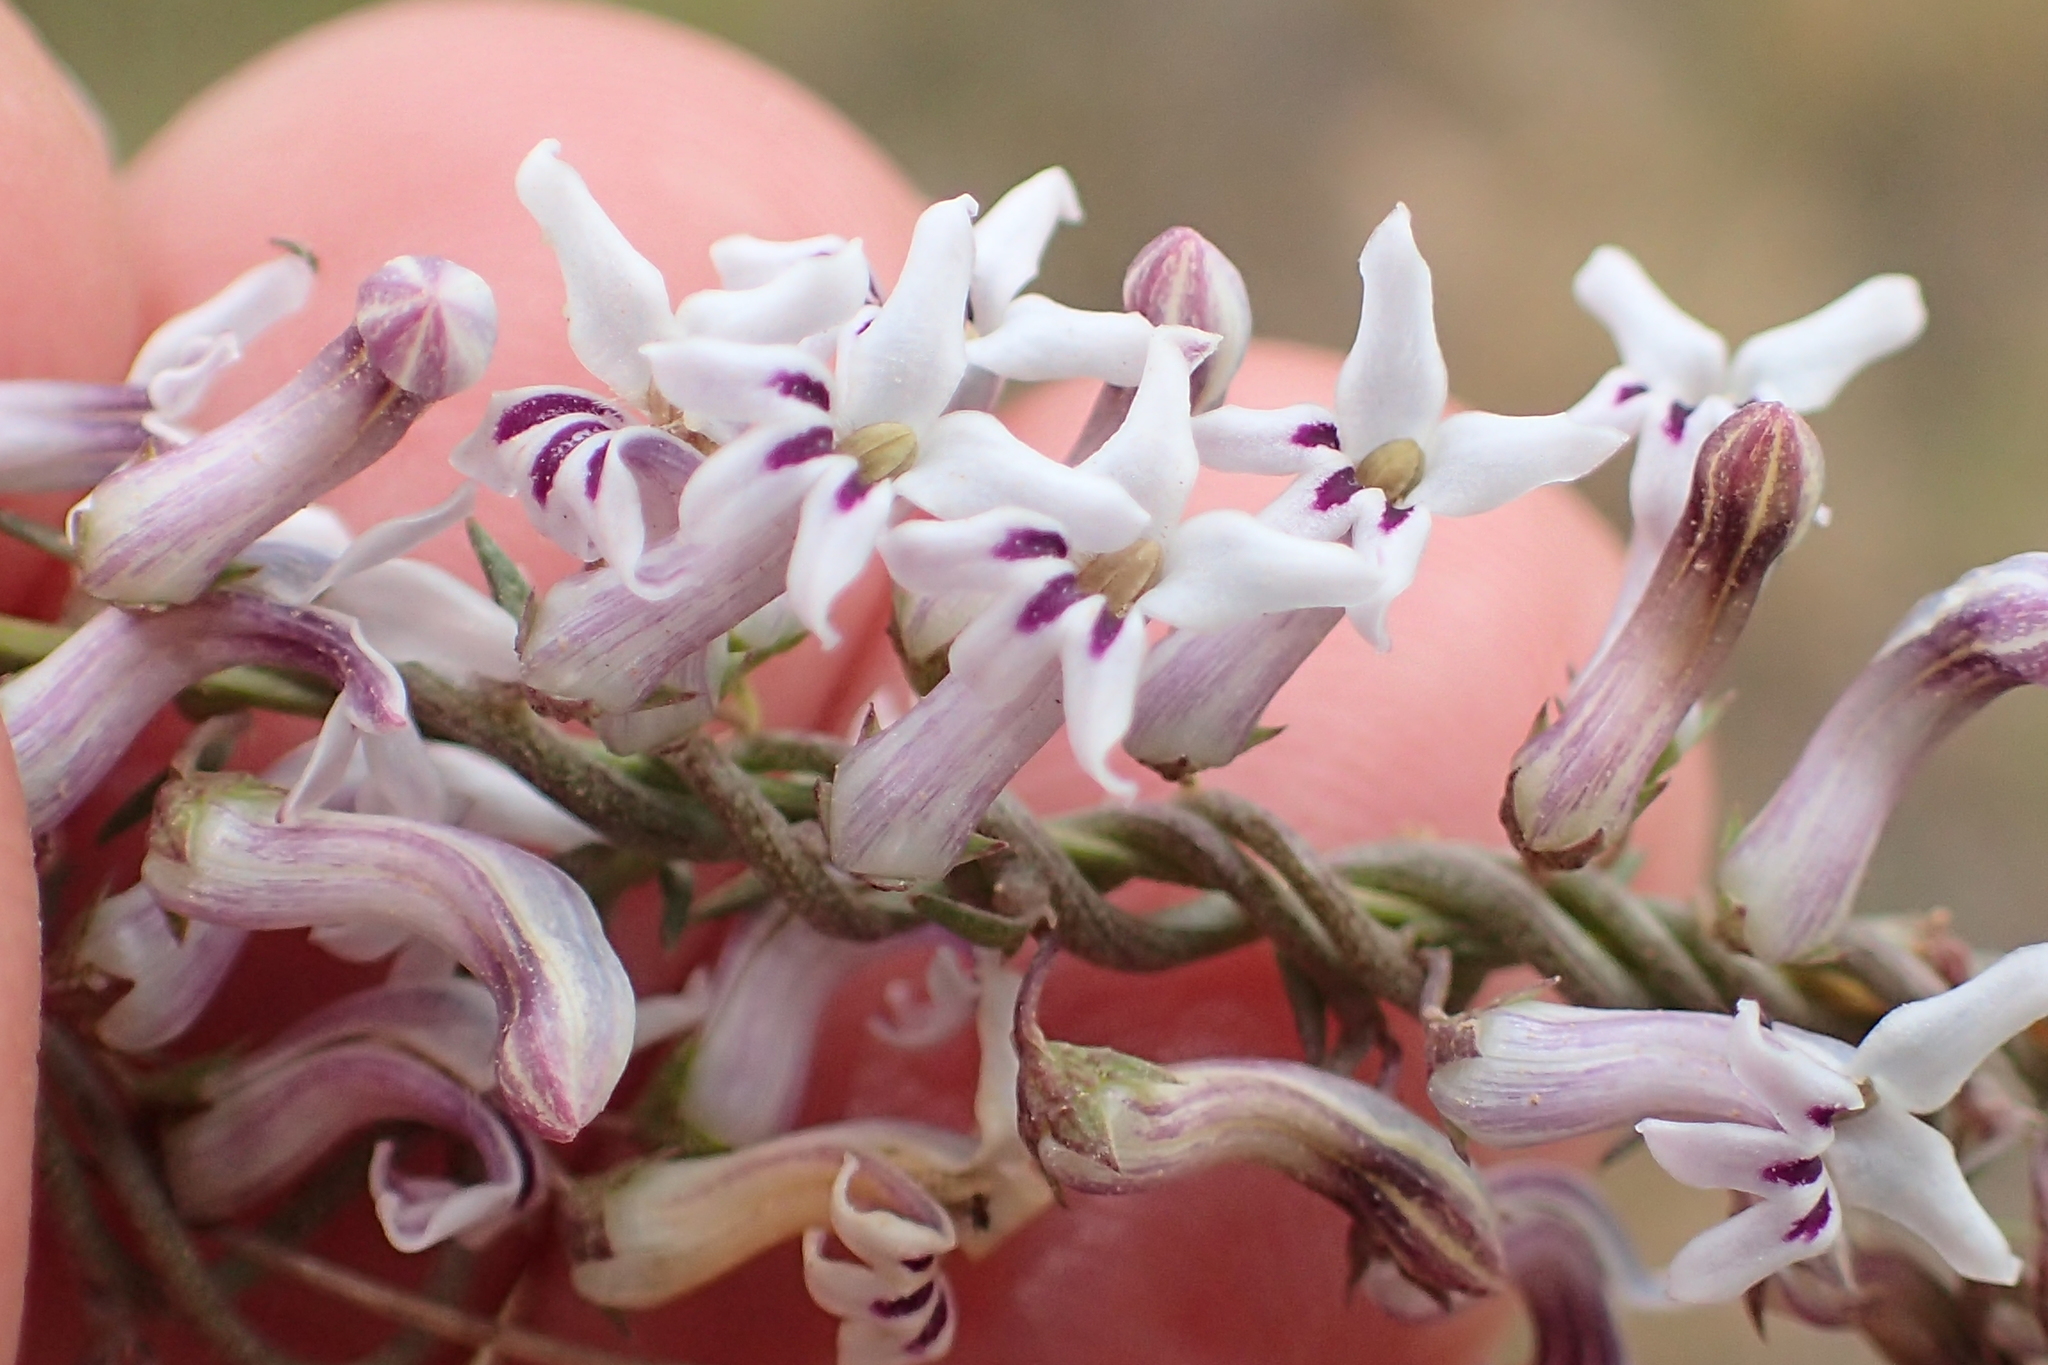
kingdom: Plantae
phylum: Tracheophyta
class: Magnoliopsida
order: Asterales
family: Campanulaceae
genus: Cyphia
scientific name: Cyphia digitata
